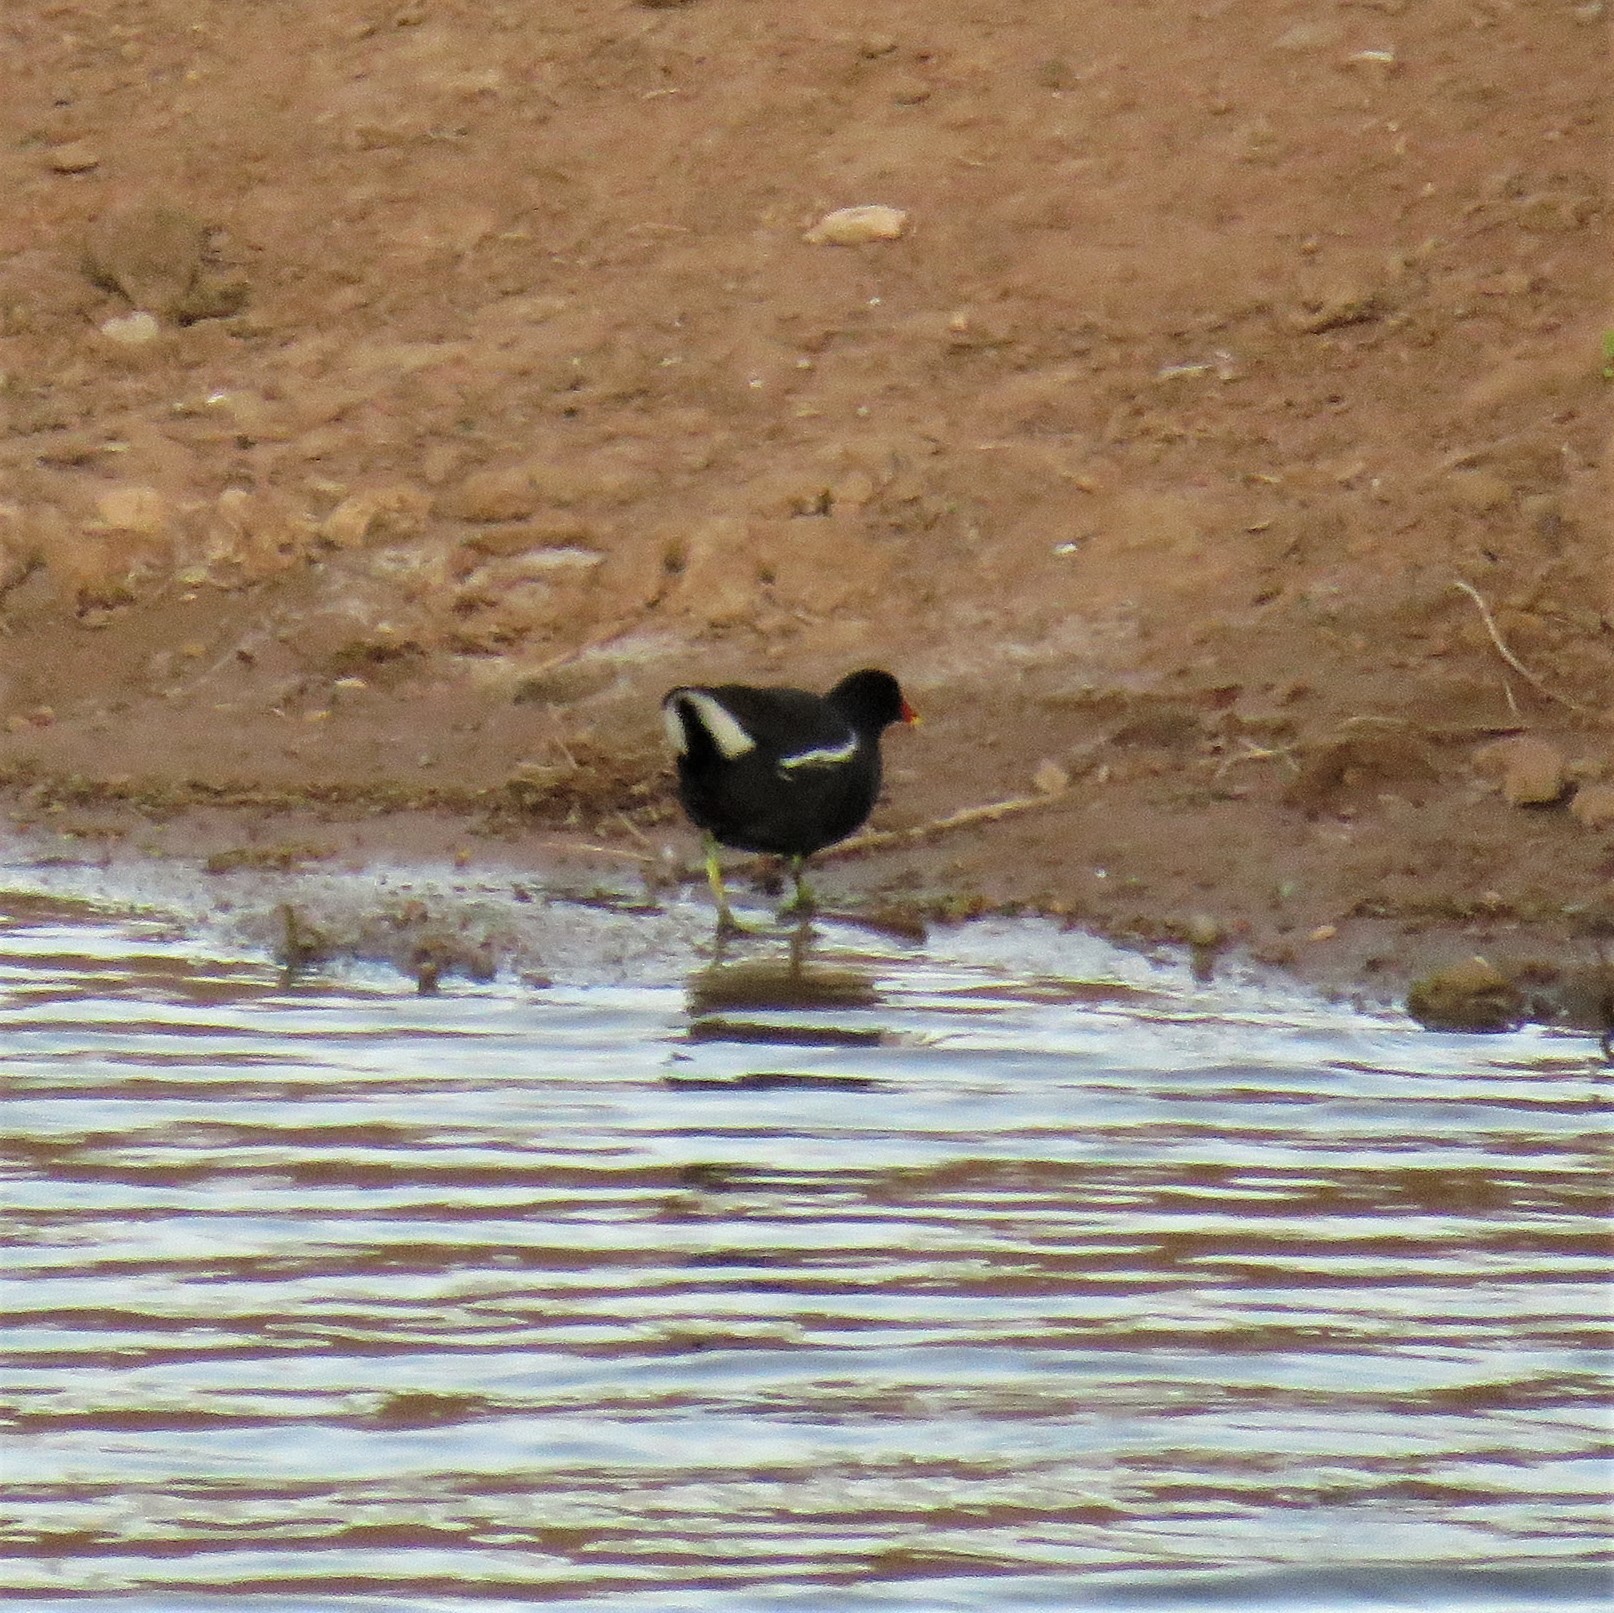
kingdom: Animalia
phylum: Chordata
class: Aves
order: Gruiformes
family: Rallidae
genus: Gallinula
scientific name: Gallinula chloropus
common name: Common moorhen
